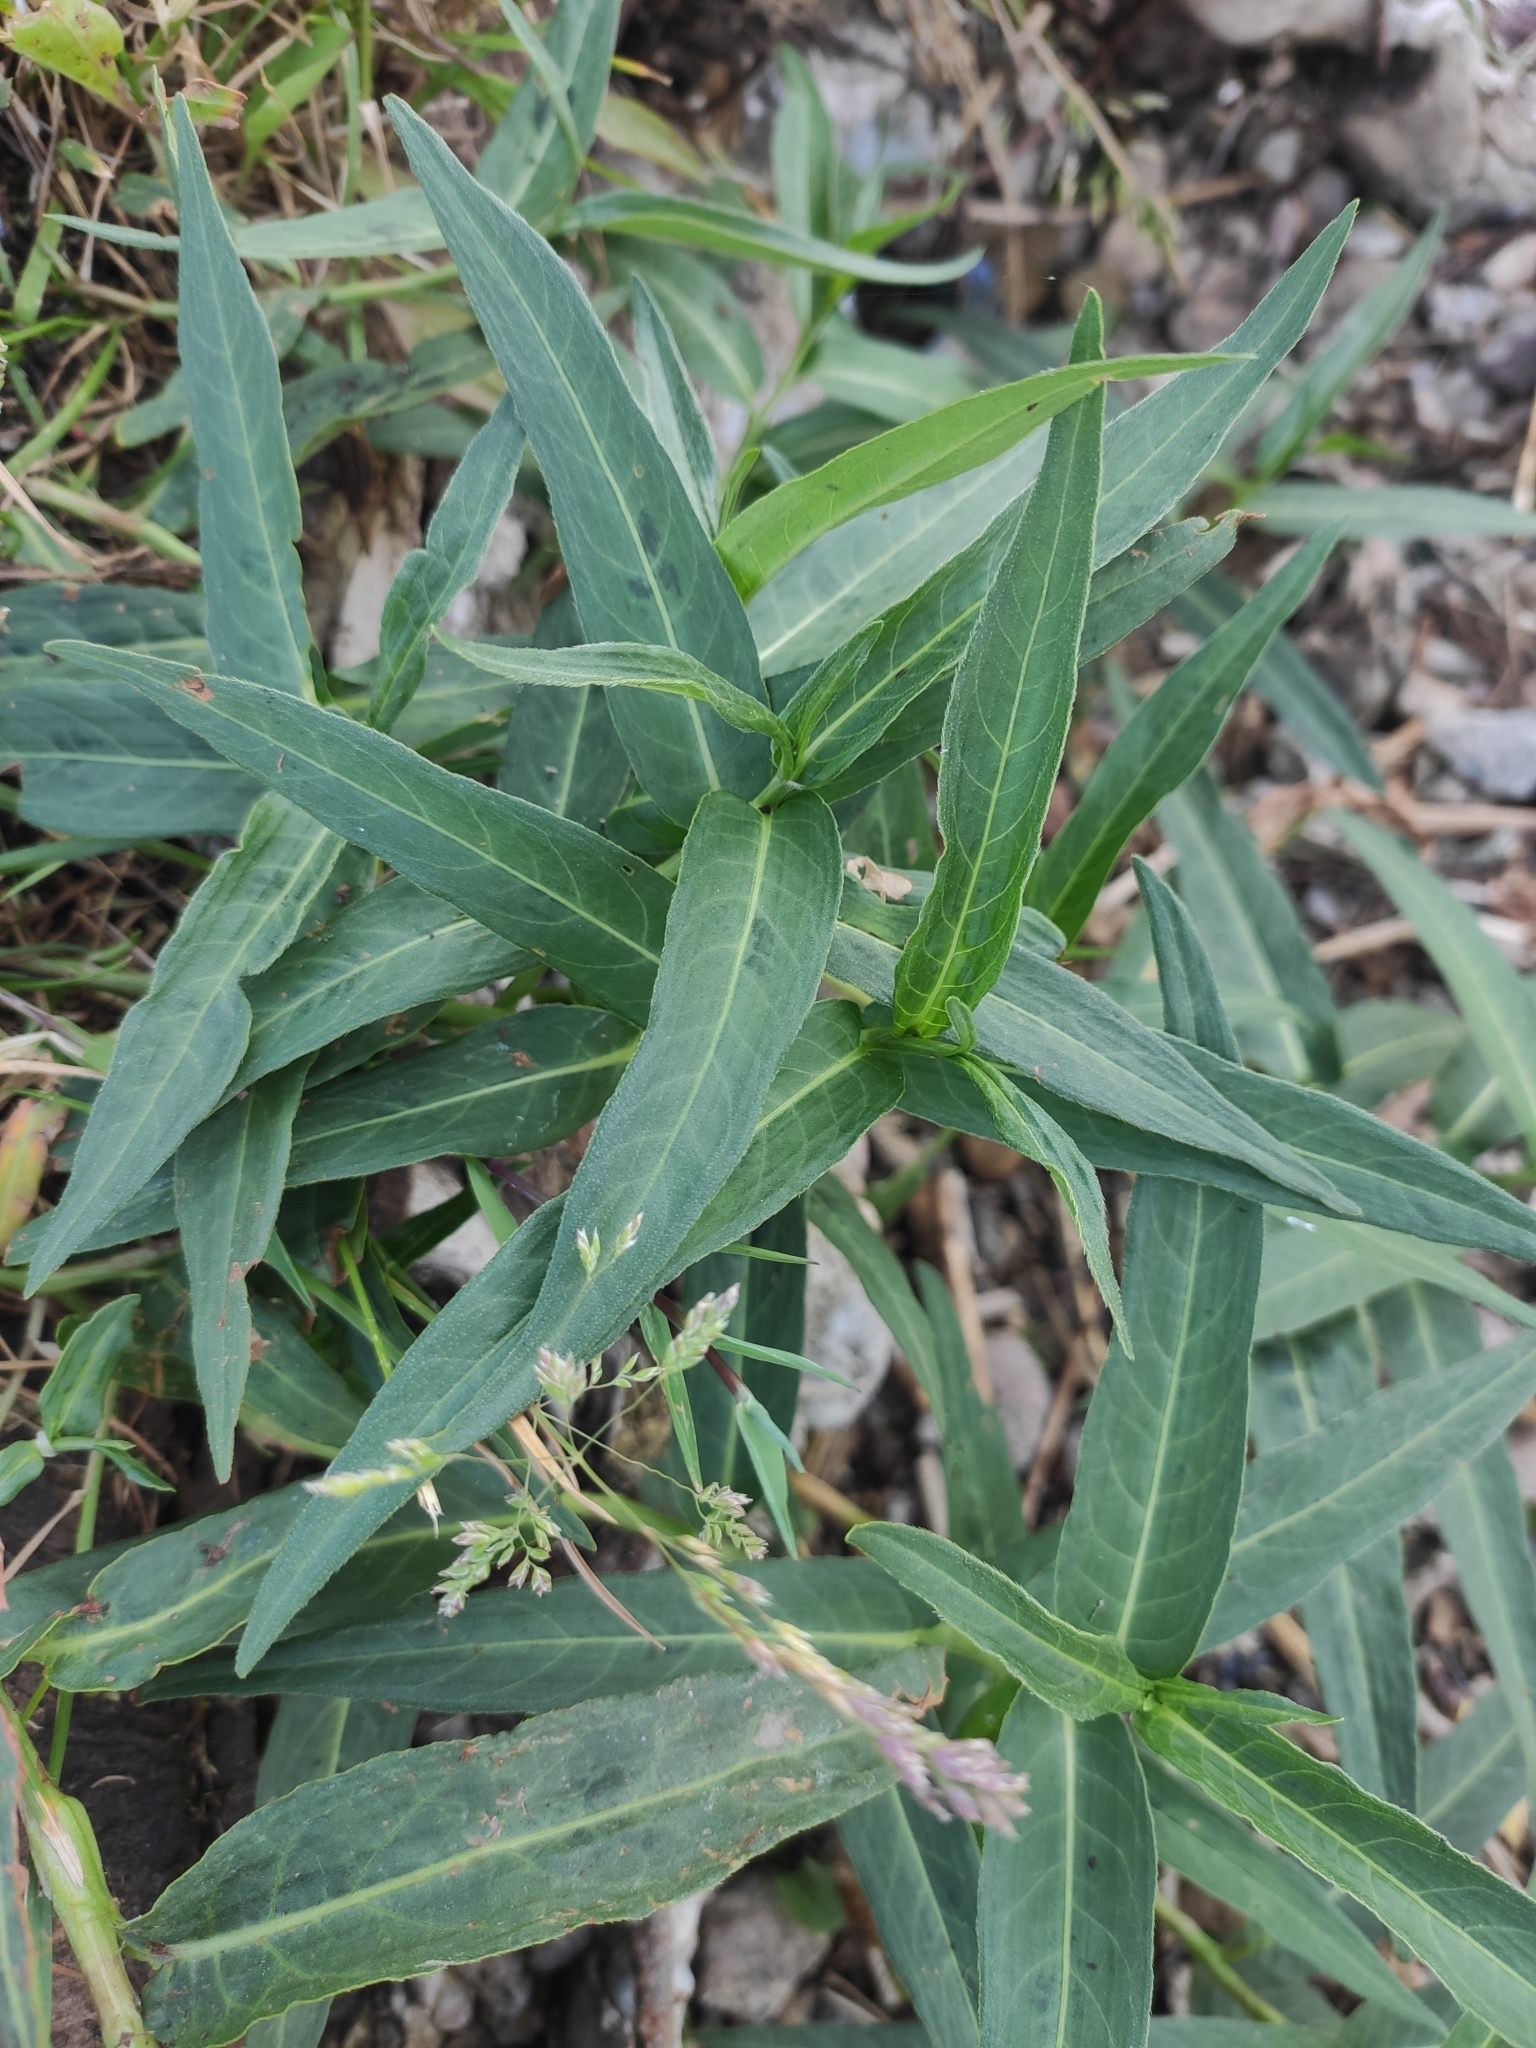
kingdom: Plantae
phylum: Tracheophyta
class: Magnoliopsida
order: Caryophyllales
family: Polygonaceae
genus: Persicaria
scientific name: Persicaria amphibia
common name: Amphibious bistort
